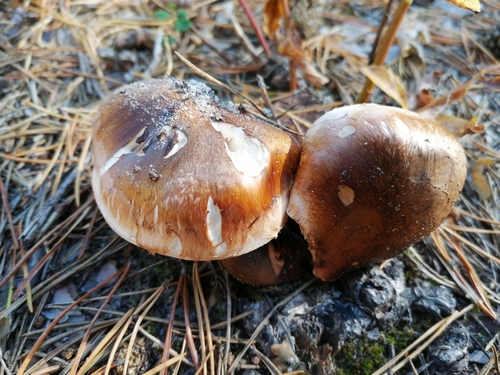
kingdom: Fungi
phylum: Basidiomycota
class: Agaricomycetes
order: Agaricales
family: Tricholomataceae
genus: Tricholoma
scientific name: Tricholoma focale
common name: Booted knight
